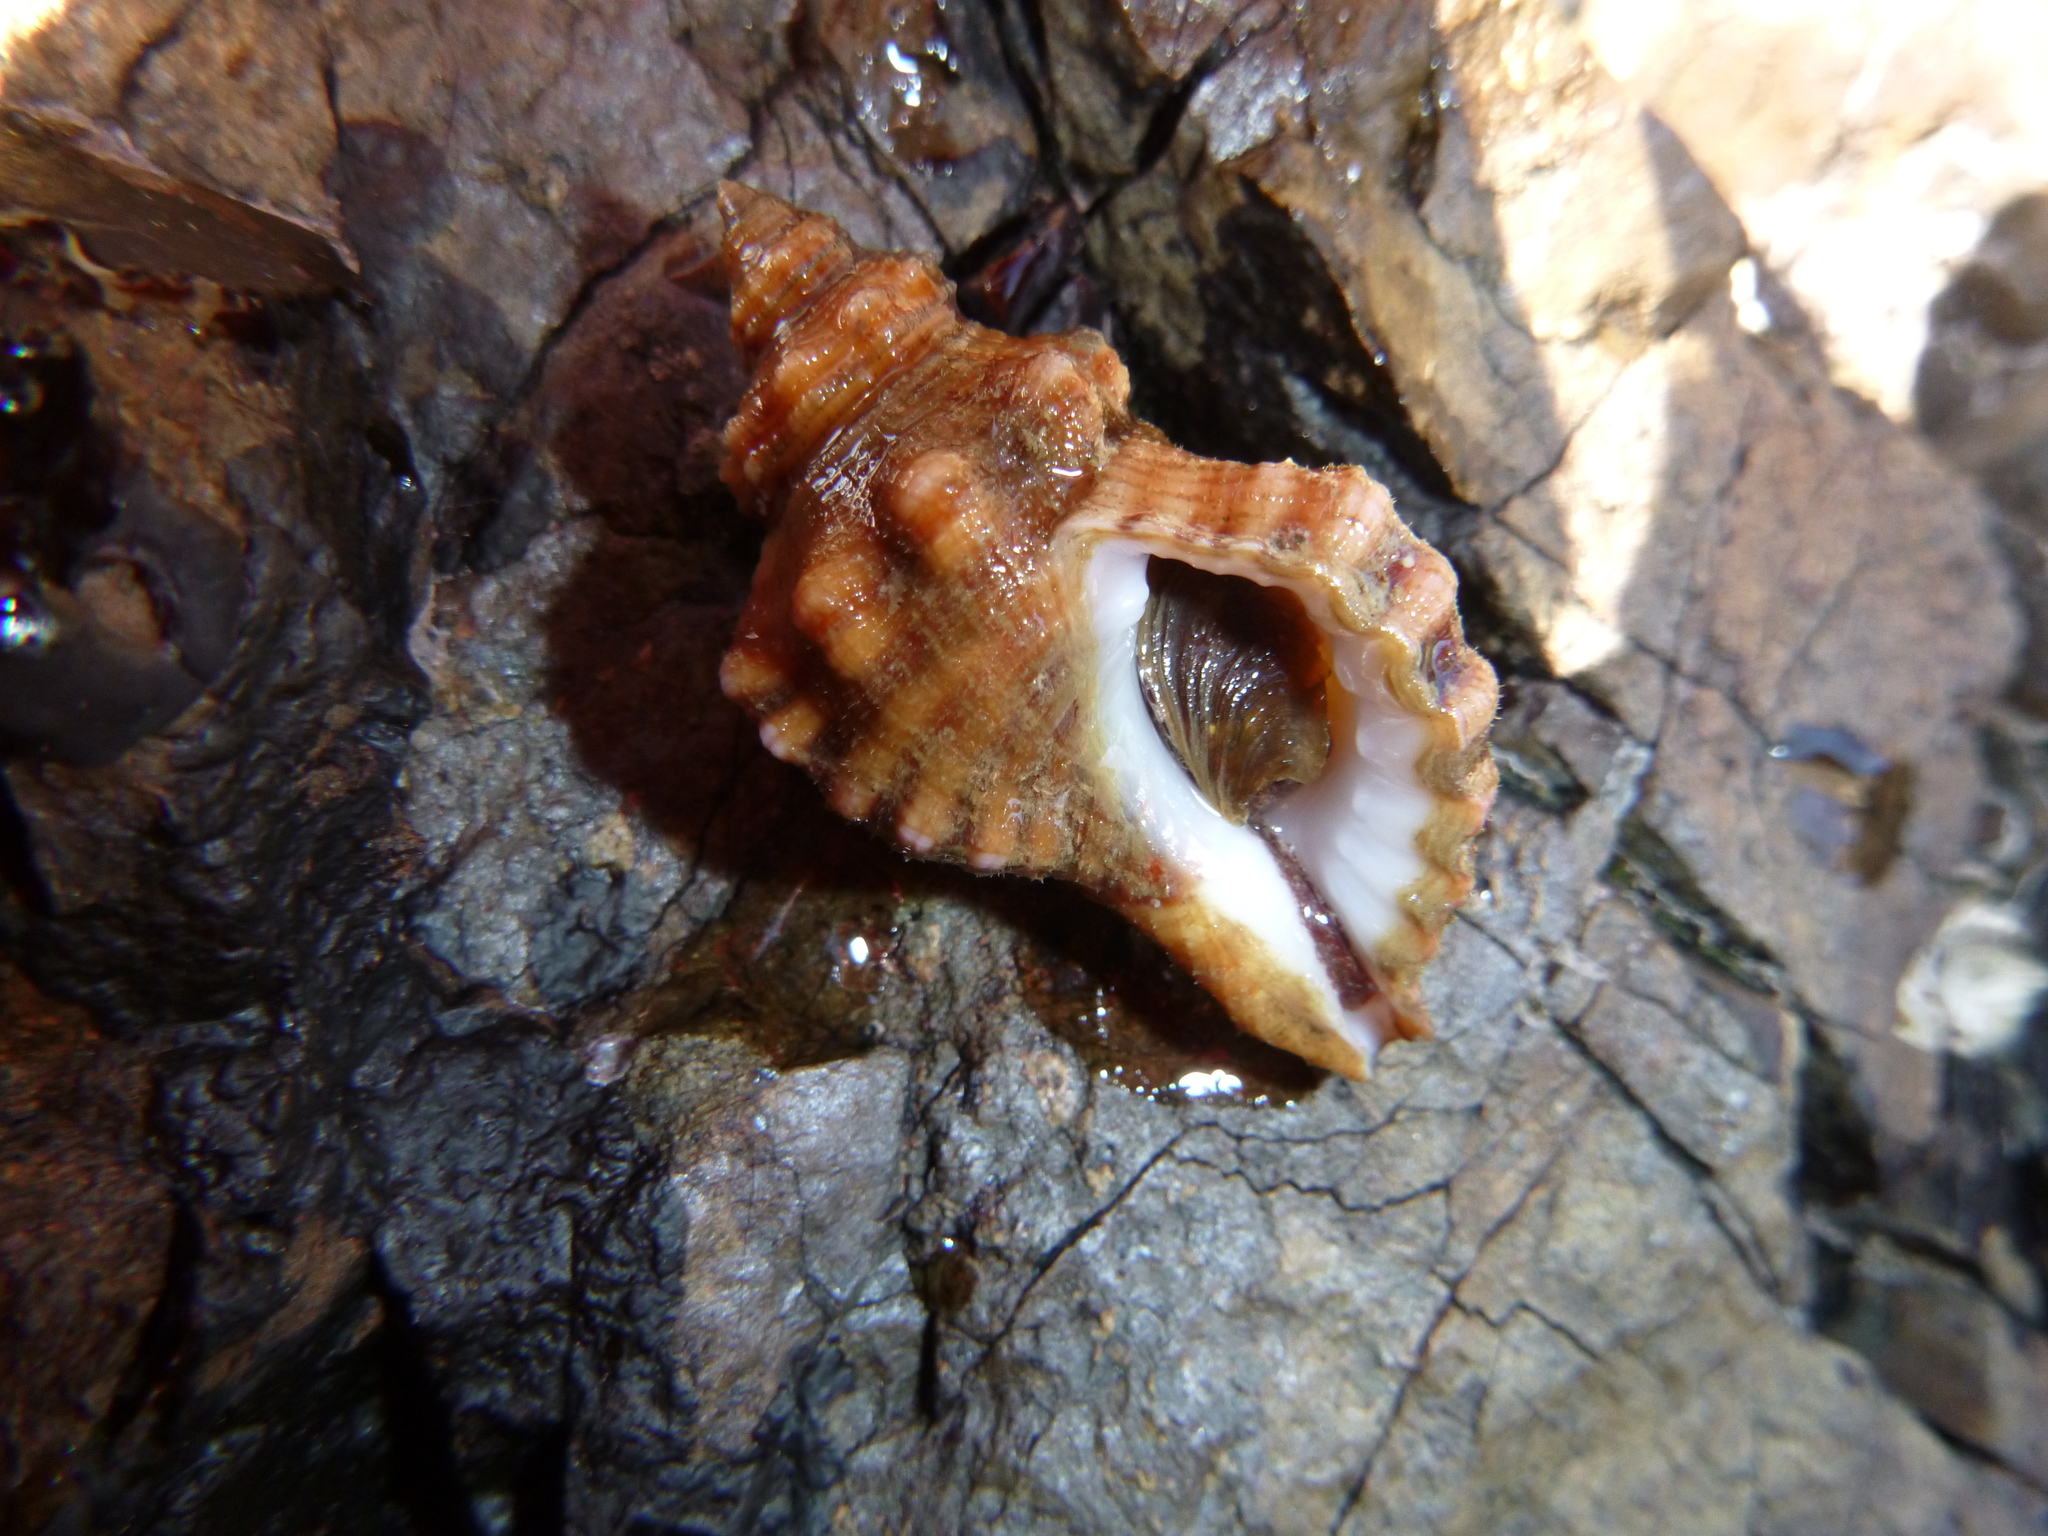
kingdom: Animalia
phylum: Mollusca
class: Gastropoda
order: Littorinimorpha
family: Cymatiidae
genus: Cabestana
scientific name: Cabestana spengleri
